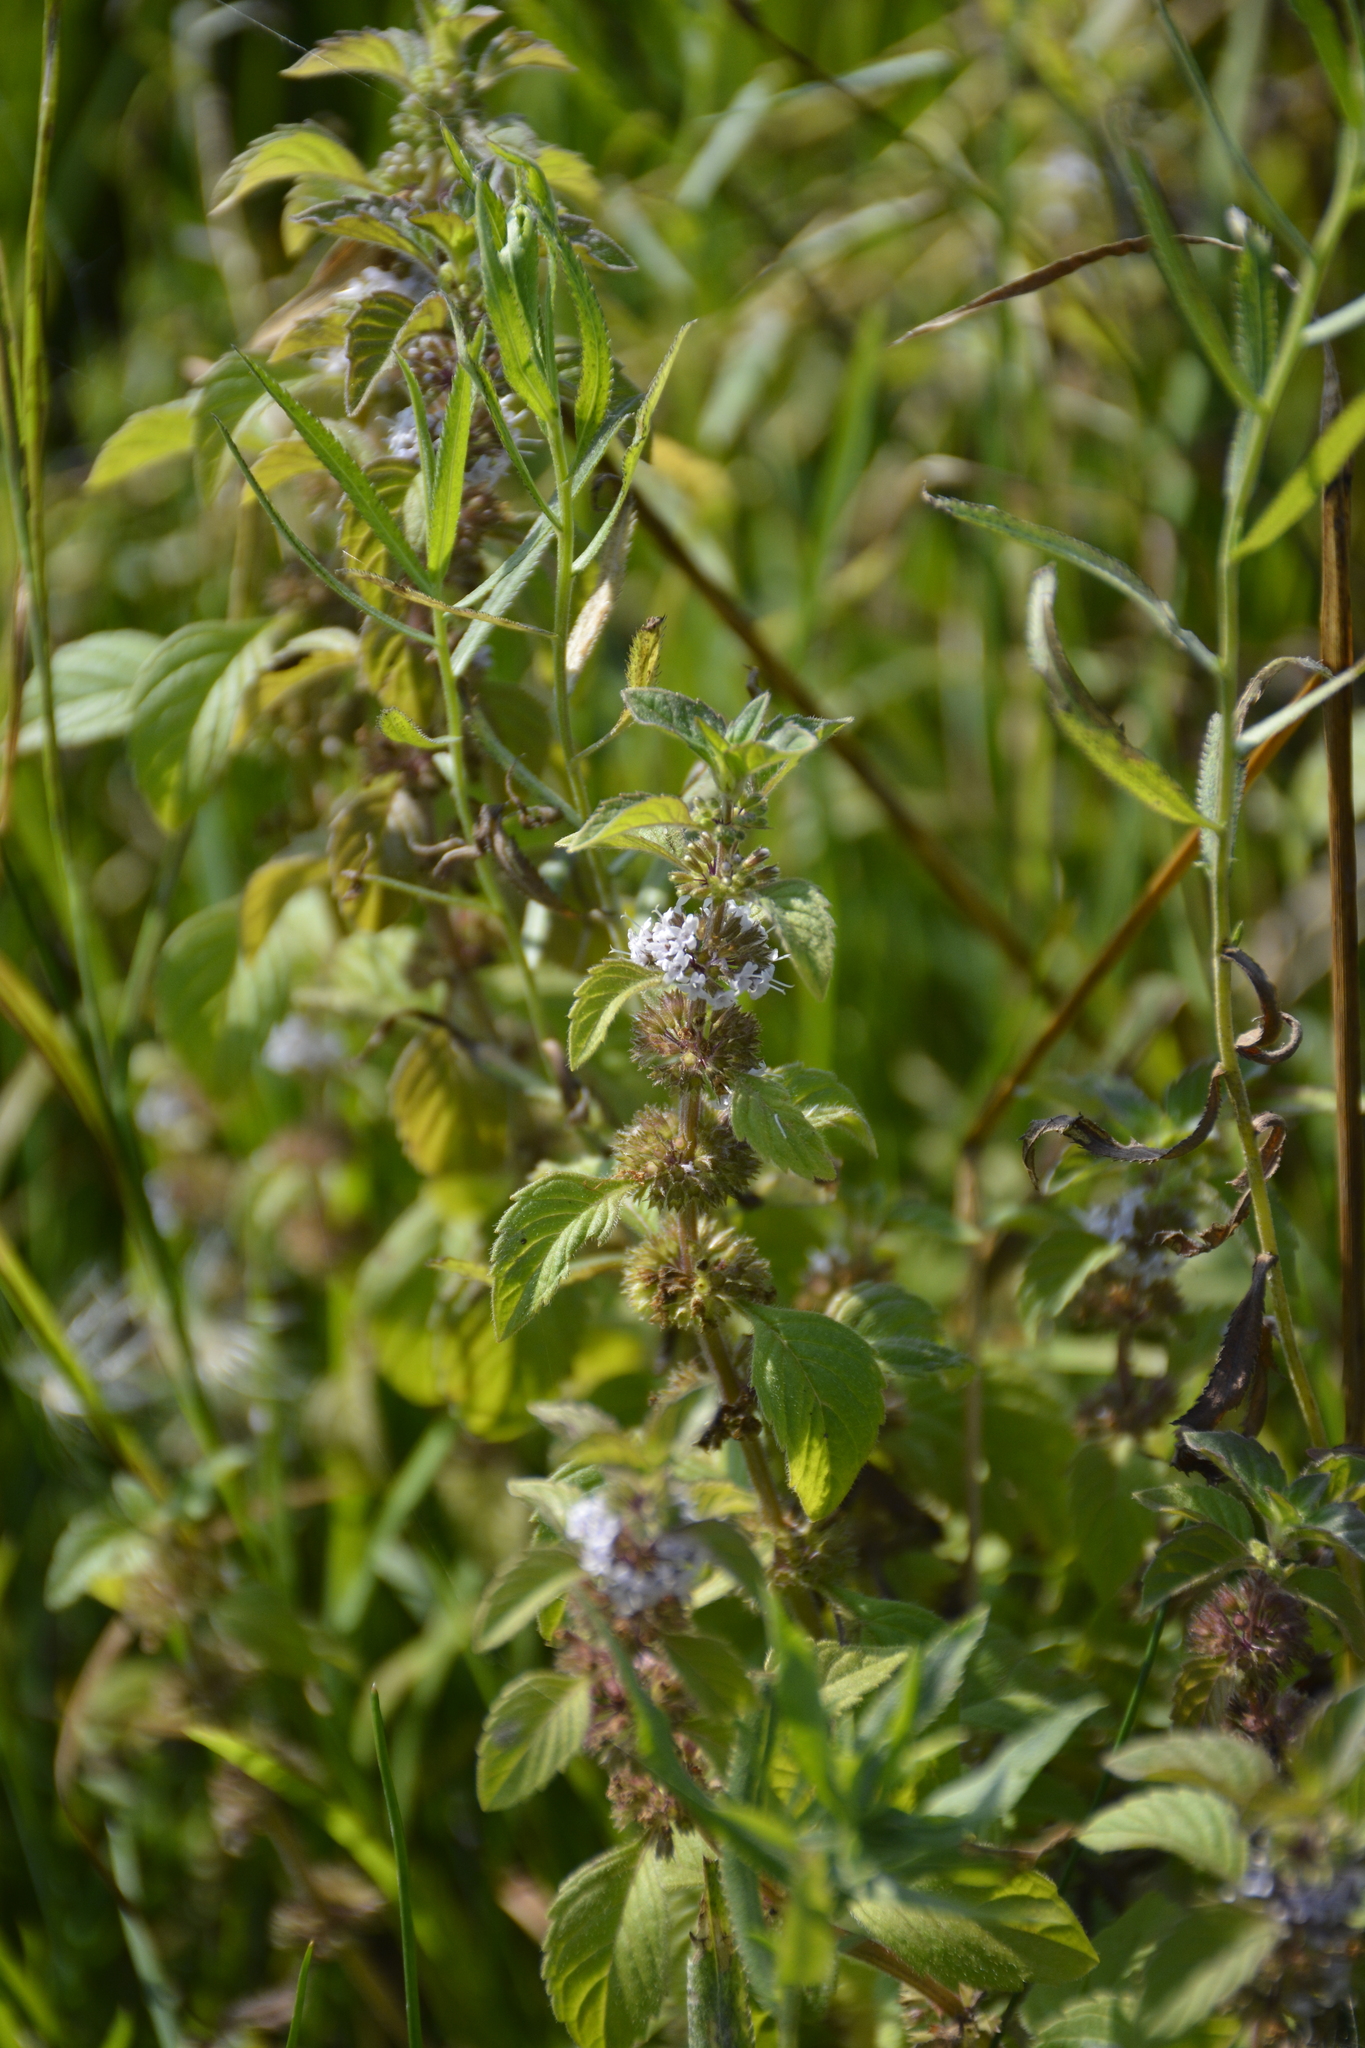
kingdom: Plantae
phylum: Tracheophyta
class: Magnoliopsida
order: Lamiales
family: Lamiaceae
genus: Lycopus
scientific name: Lycopus europaeus
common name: European bugleweed
